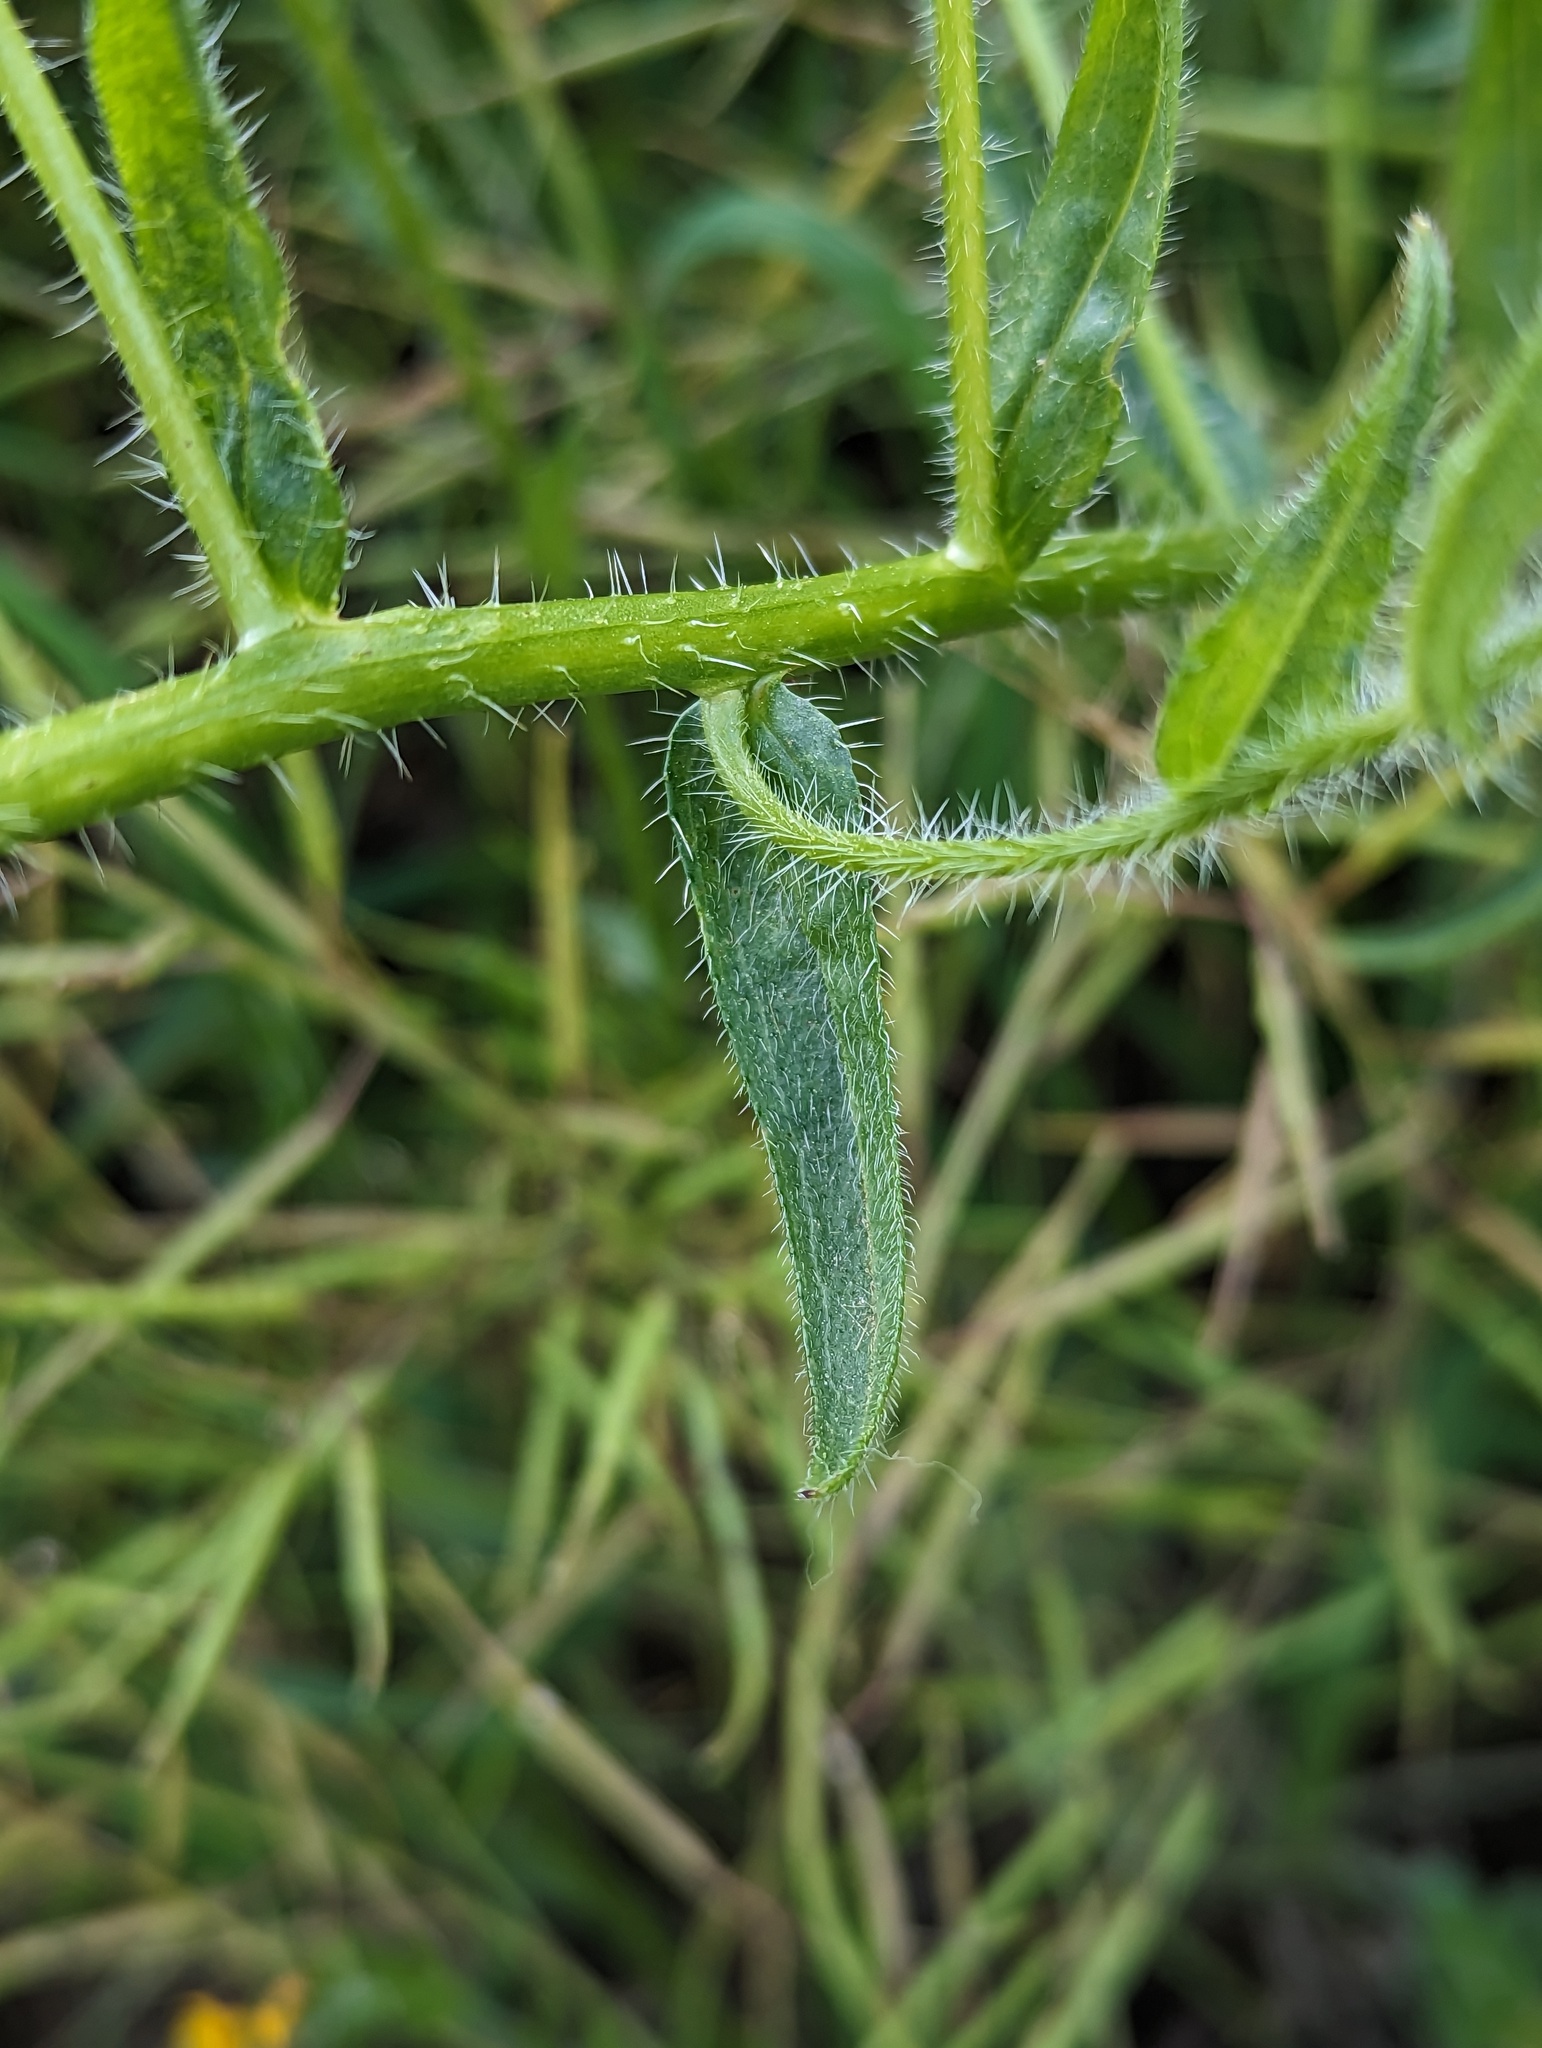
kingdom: Plantae
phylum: Tracheophyta
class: Magnoliopsida
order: Boraginales
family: Boraginaceae
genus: Amsinckia
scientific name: Amsinckia menziesii
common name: Menzies' fiddleneck
